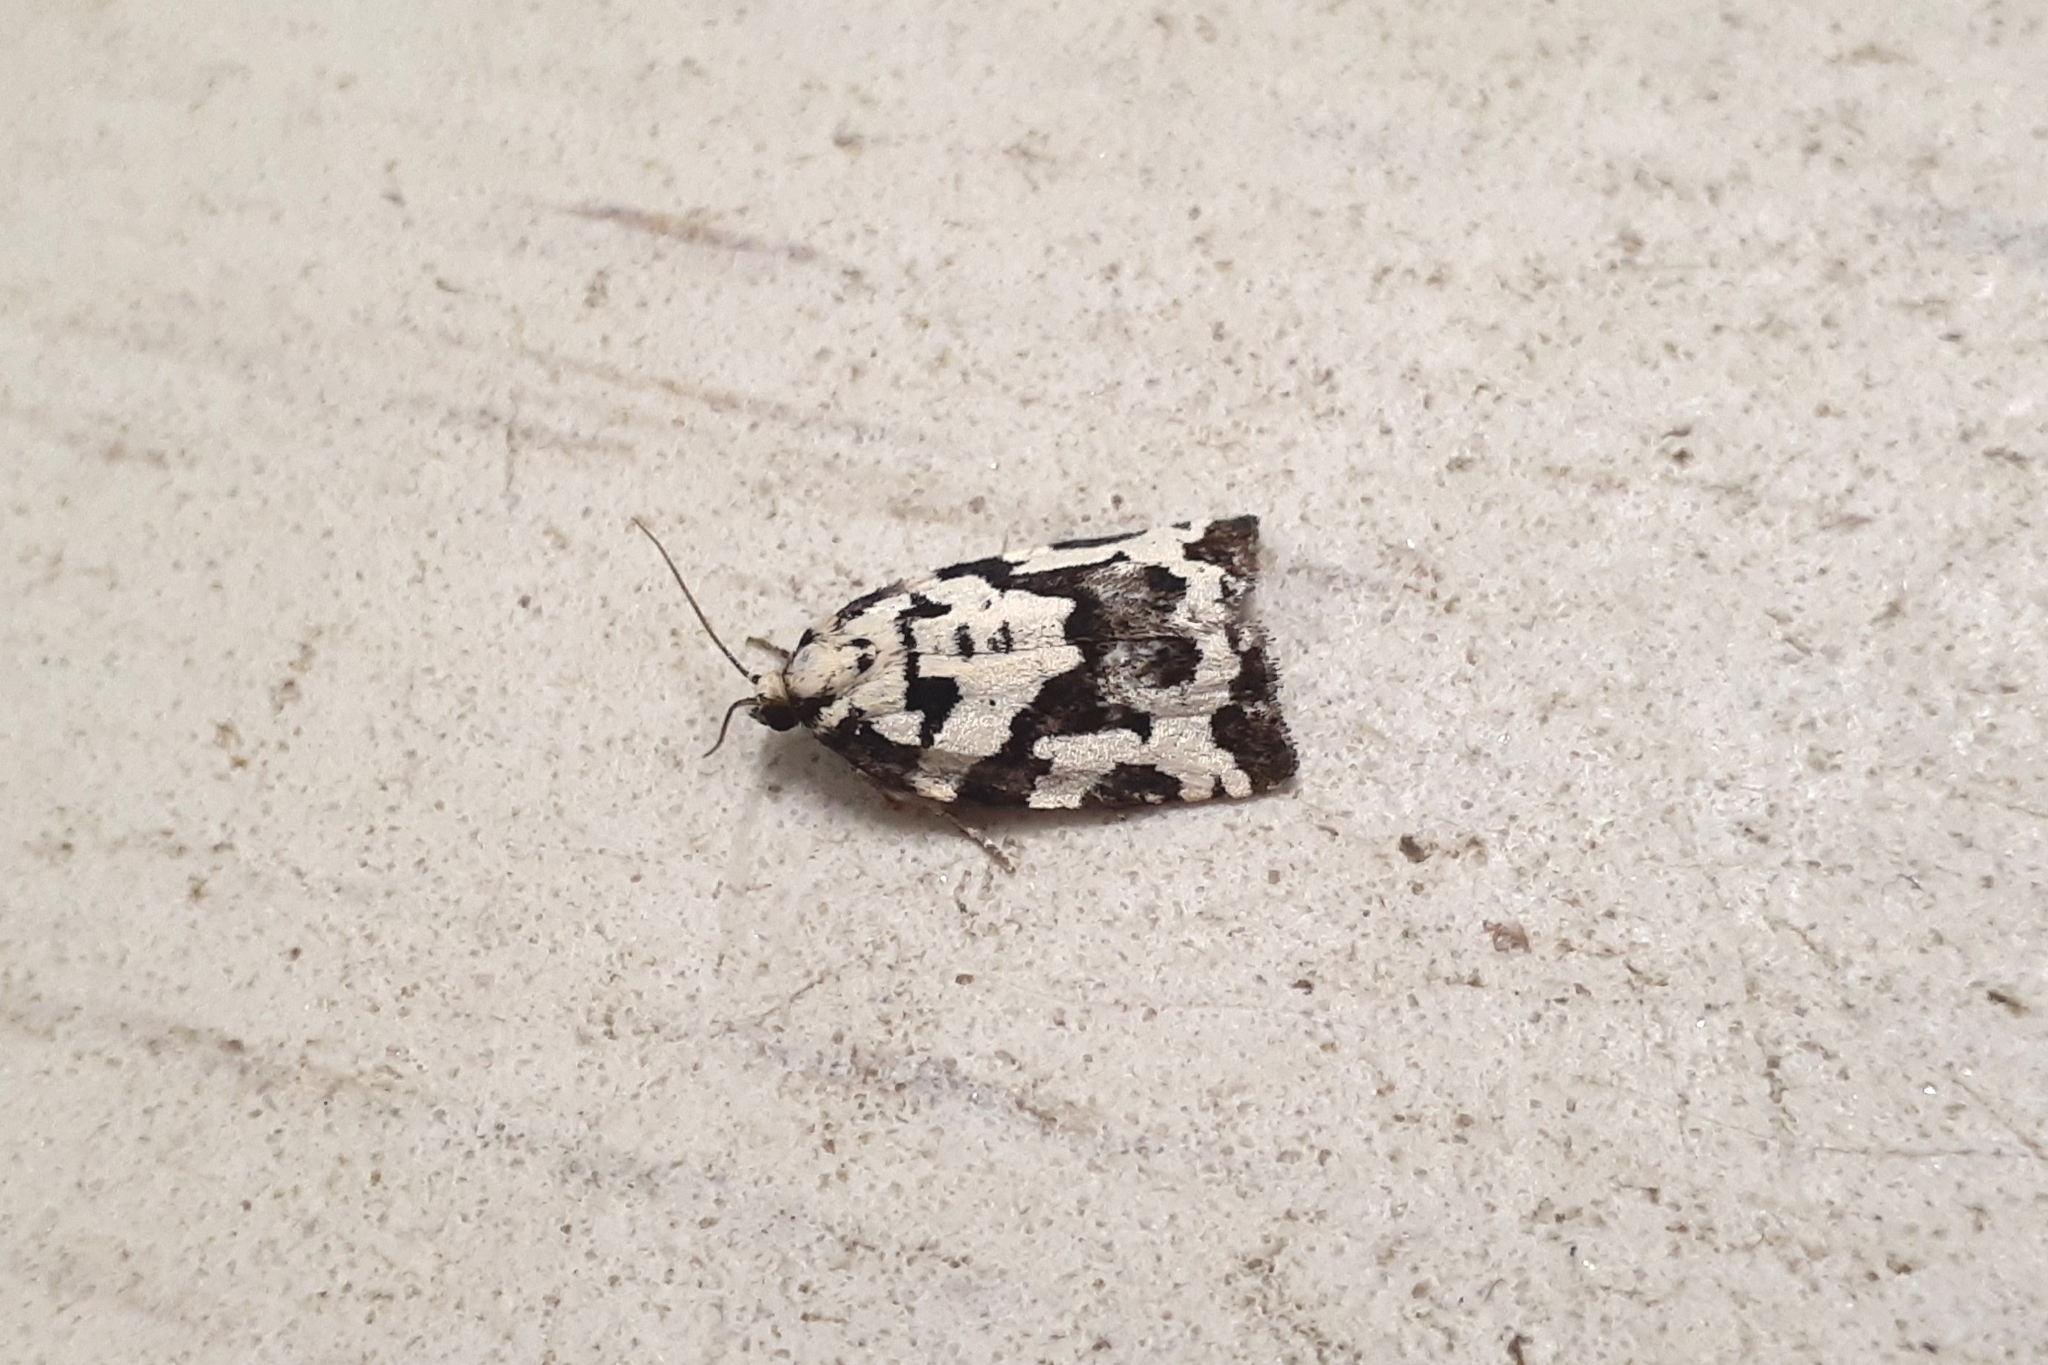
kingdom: Animalia
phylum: Arthropoda
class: Insecta
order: Lepidoptera
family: Tortricidae
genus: Archips
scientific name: Archips dissitana
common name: Boldly-marked archips moth
